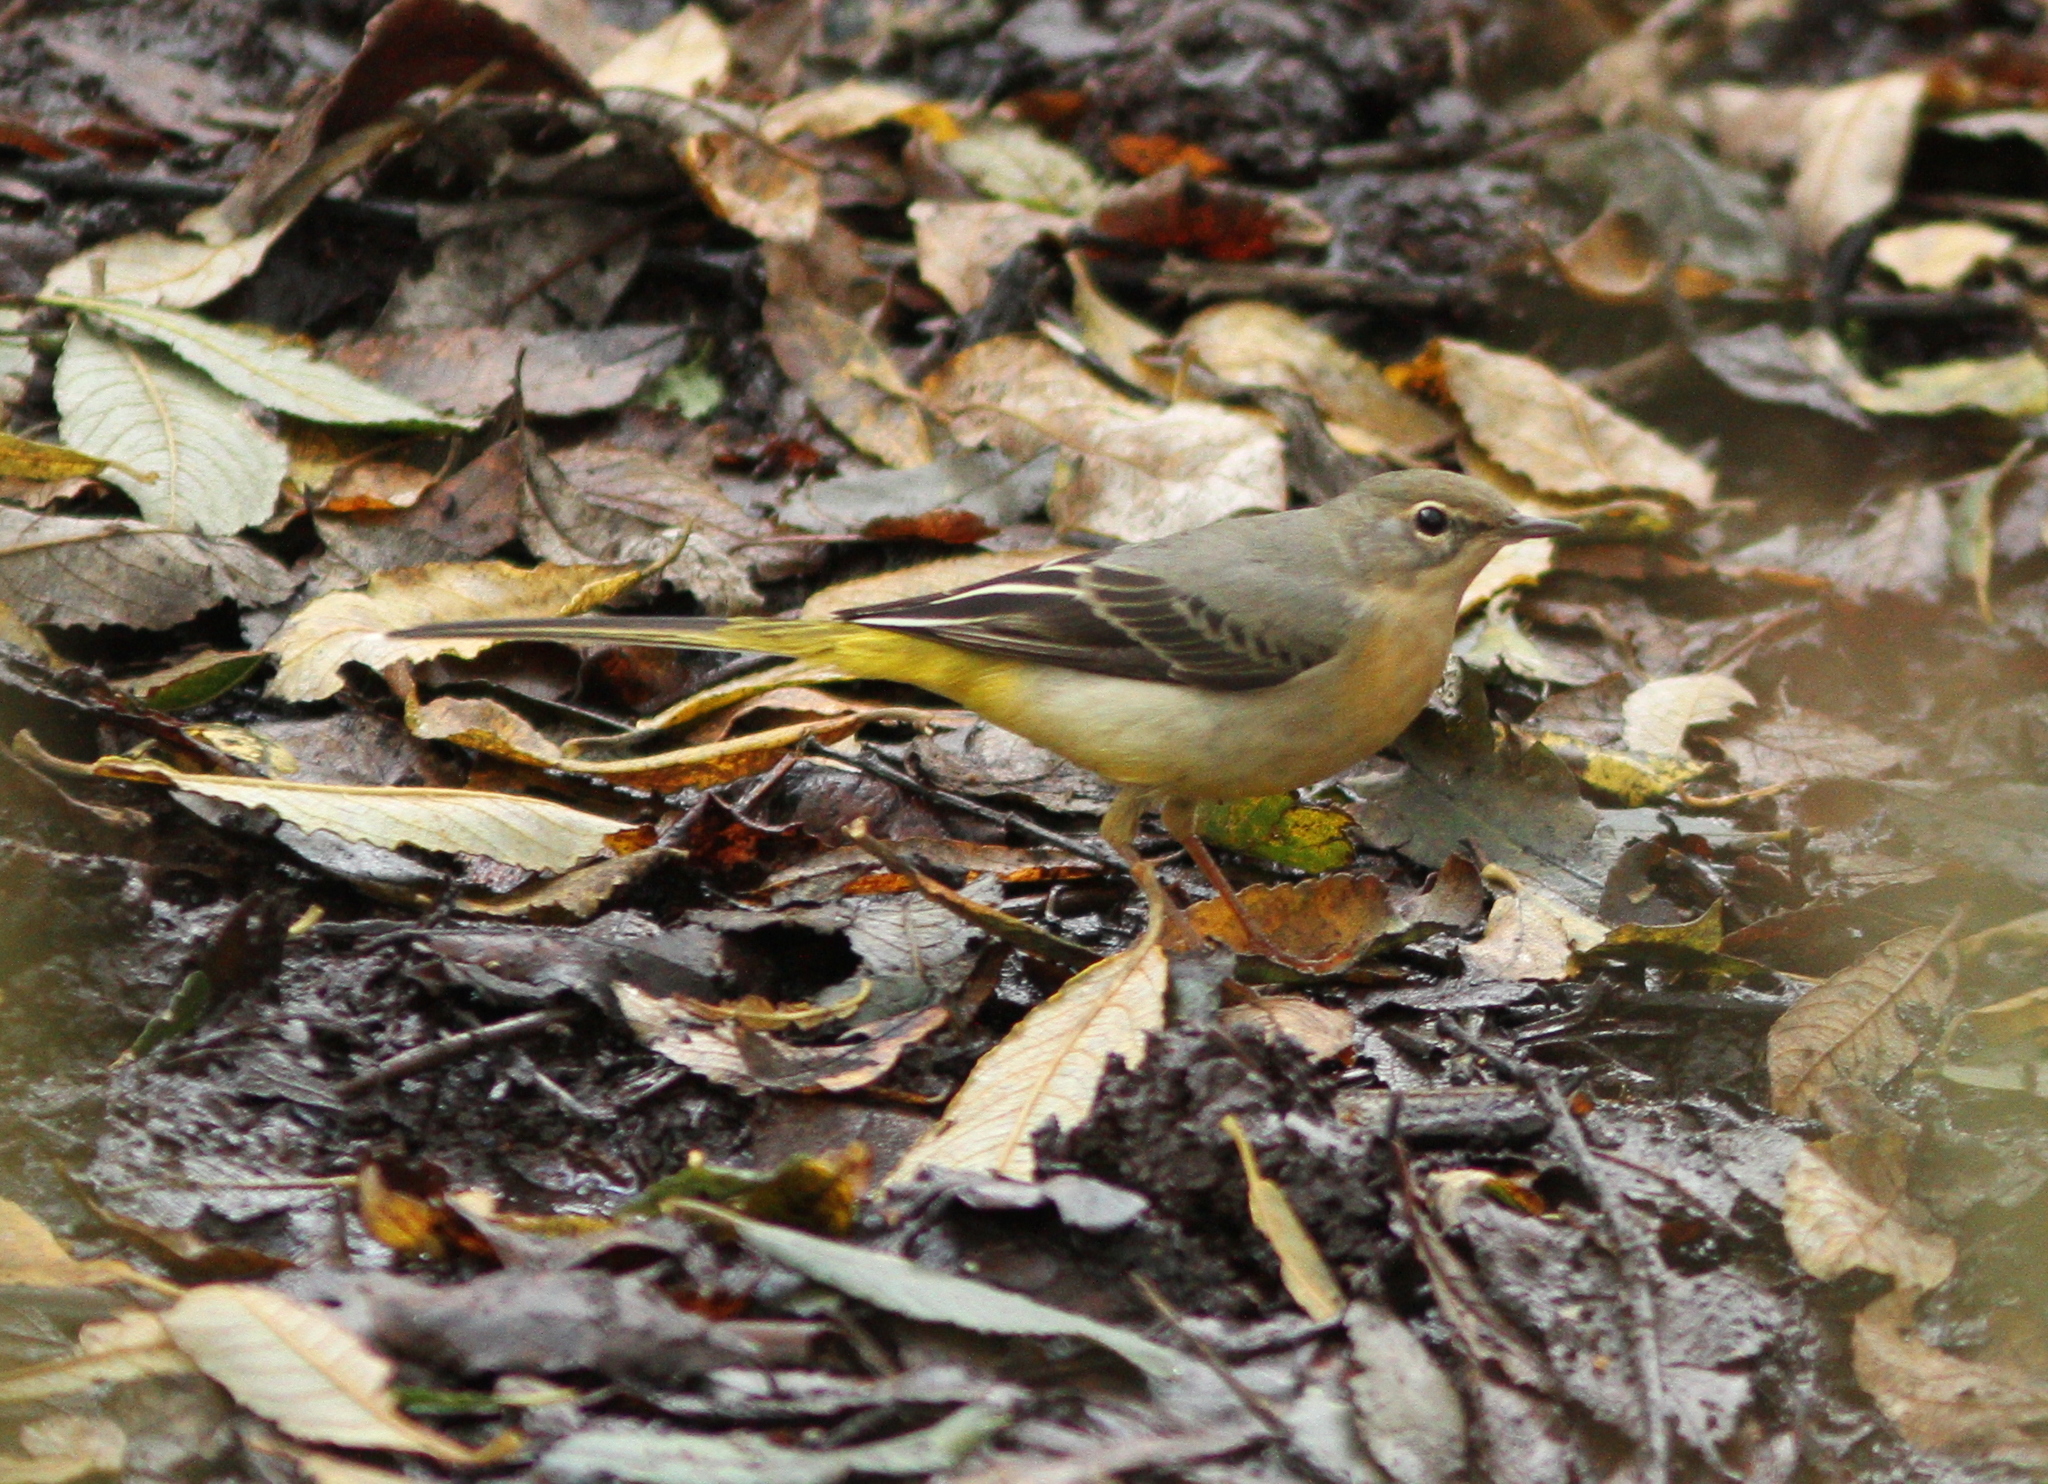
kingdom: Animalia
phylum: Chordata
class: Aves
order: Passeriformes
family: Motacillidae
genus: Motacilla
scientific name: Motacilla cinerea
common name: Grey wagtail
